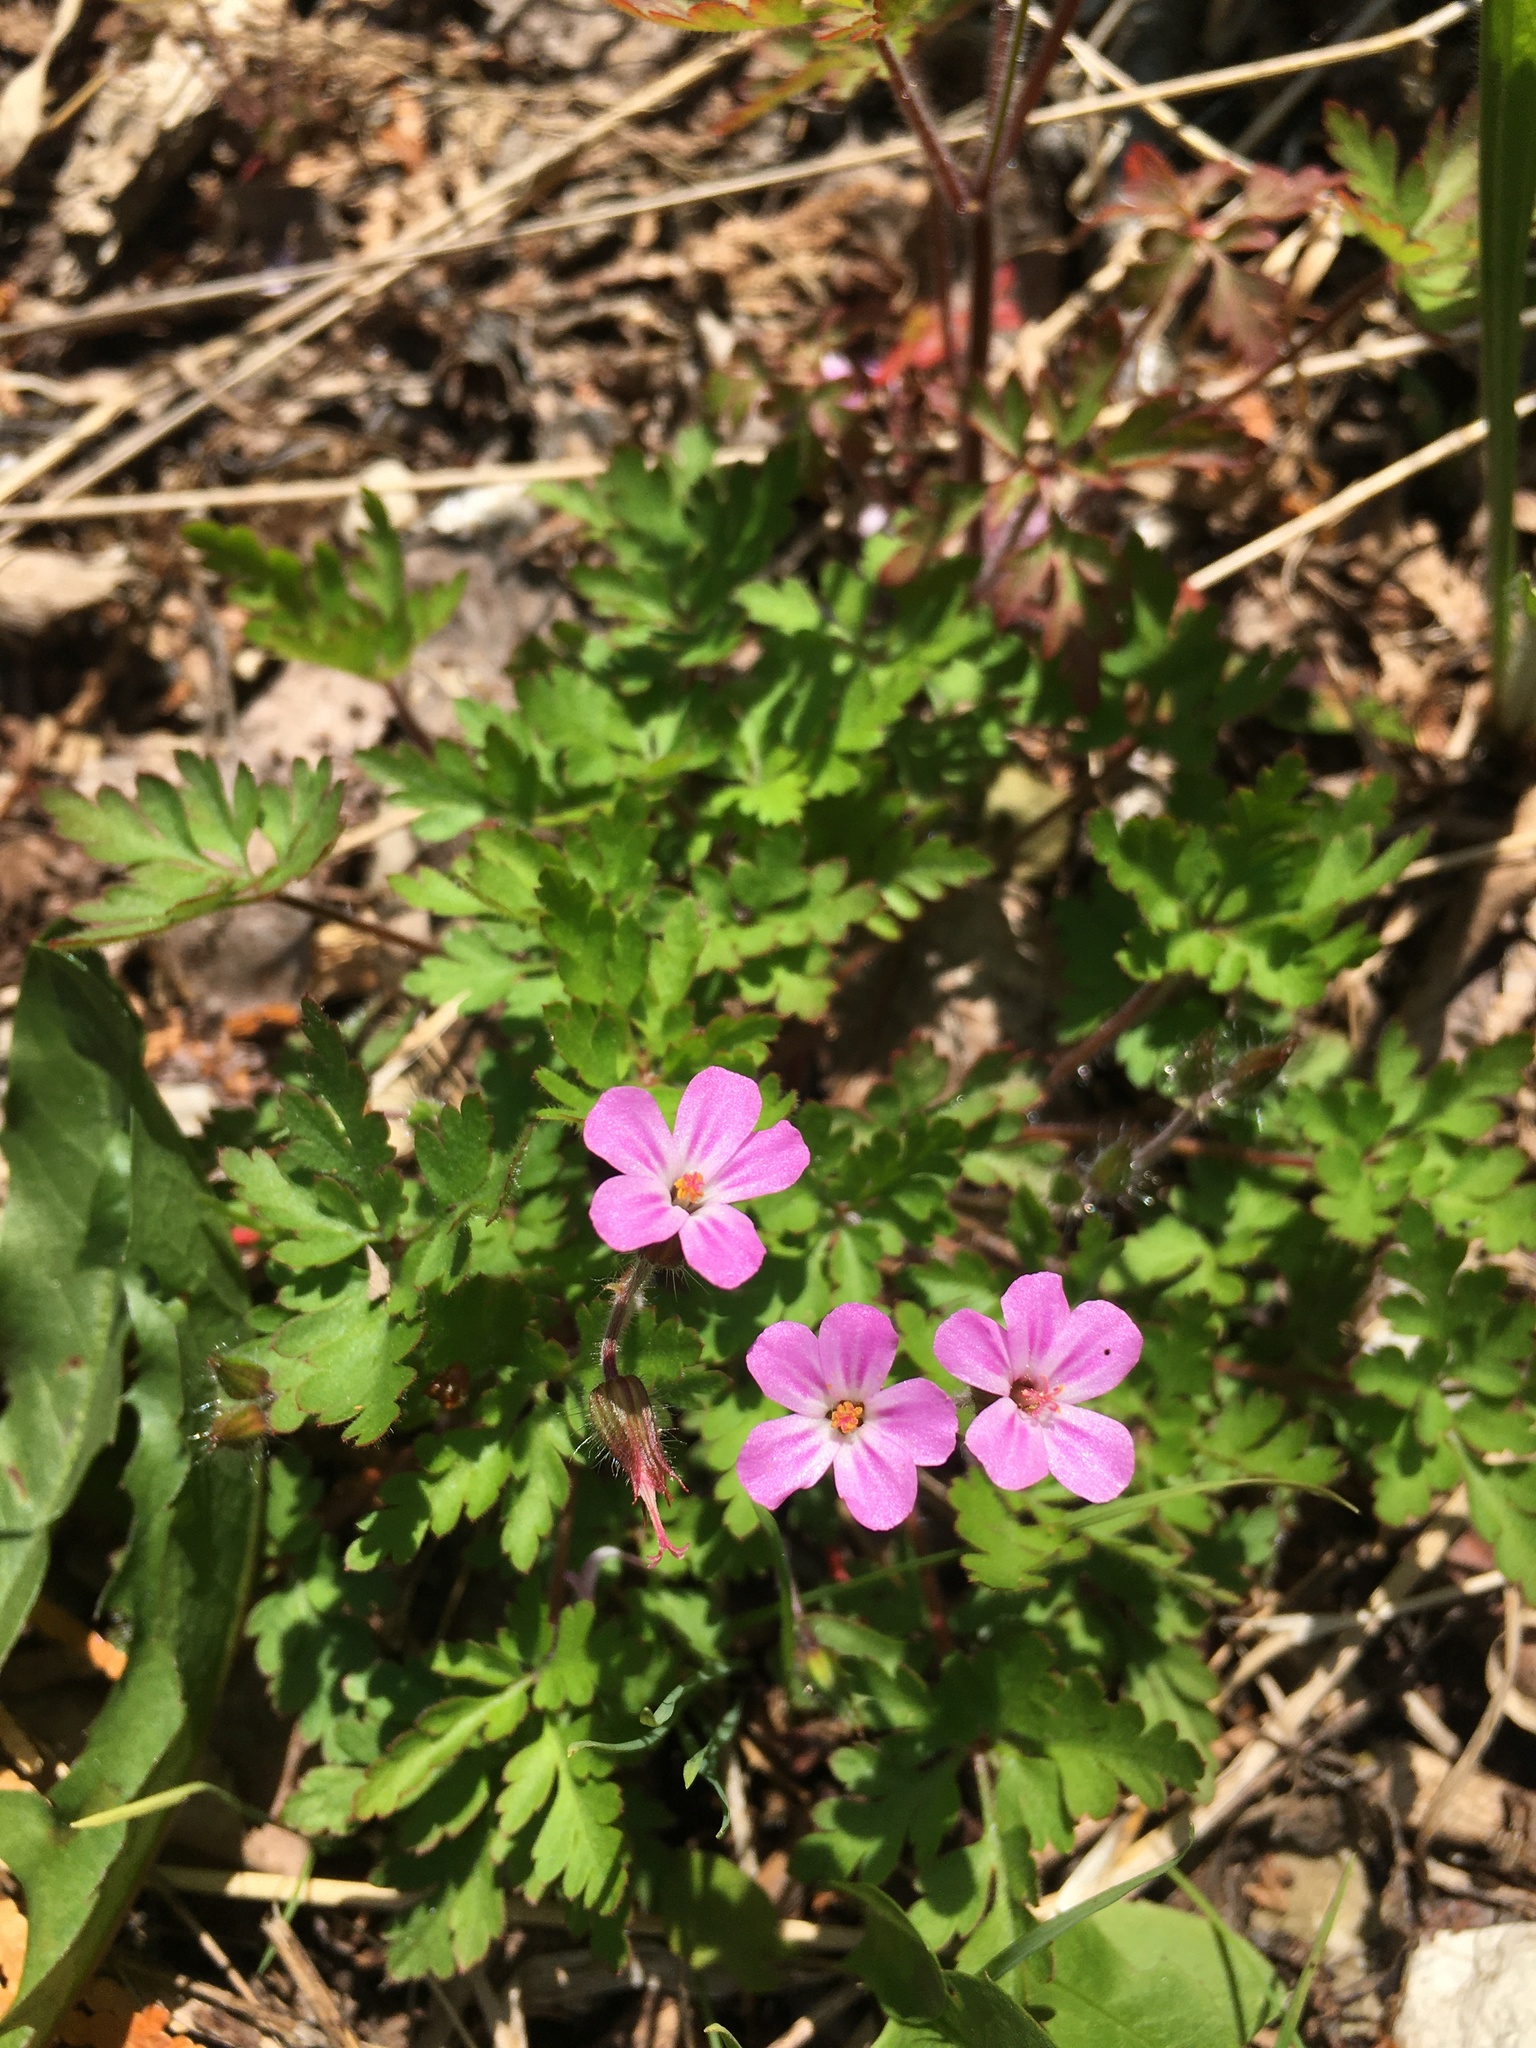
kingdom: Plantae
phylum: Tracheophyta
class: Magnoliopsida
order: Geraniales
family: Geraniaceae
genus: Geranium
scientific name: Geranium robertianum
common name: Herb-robert
